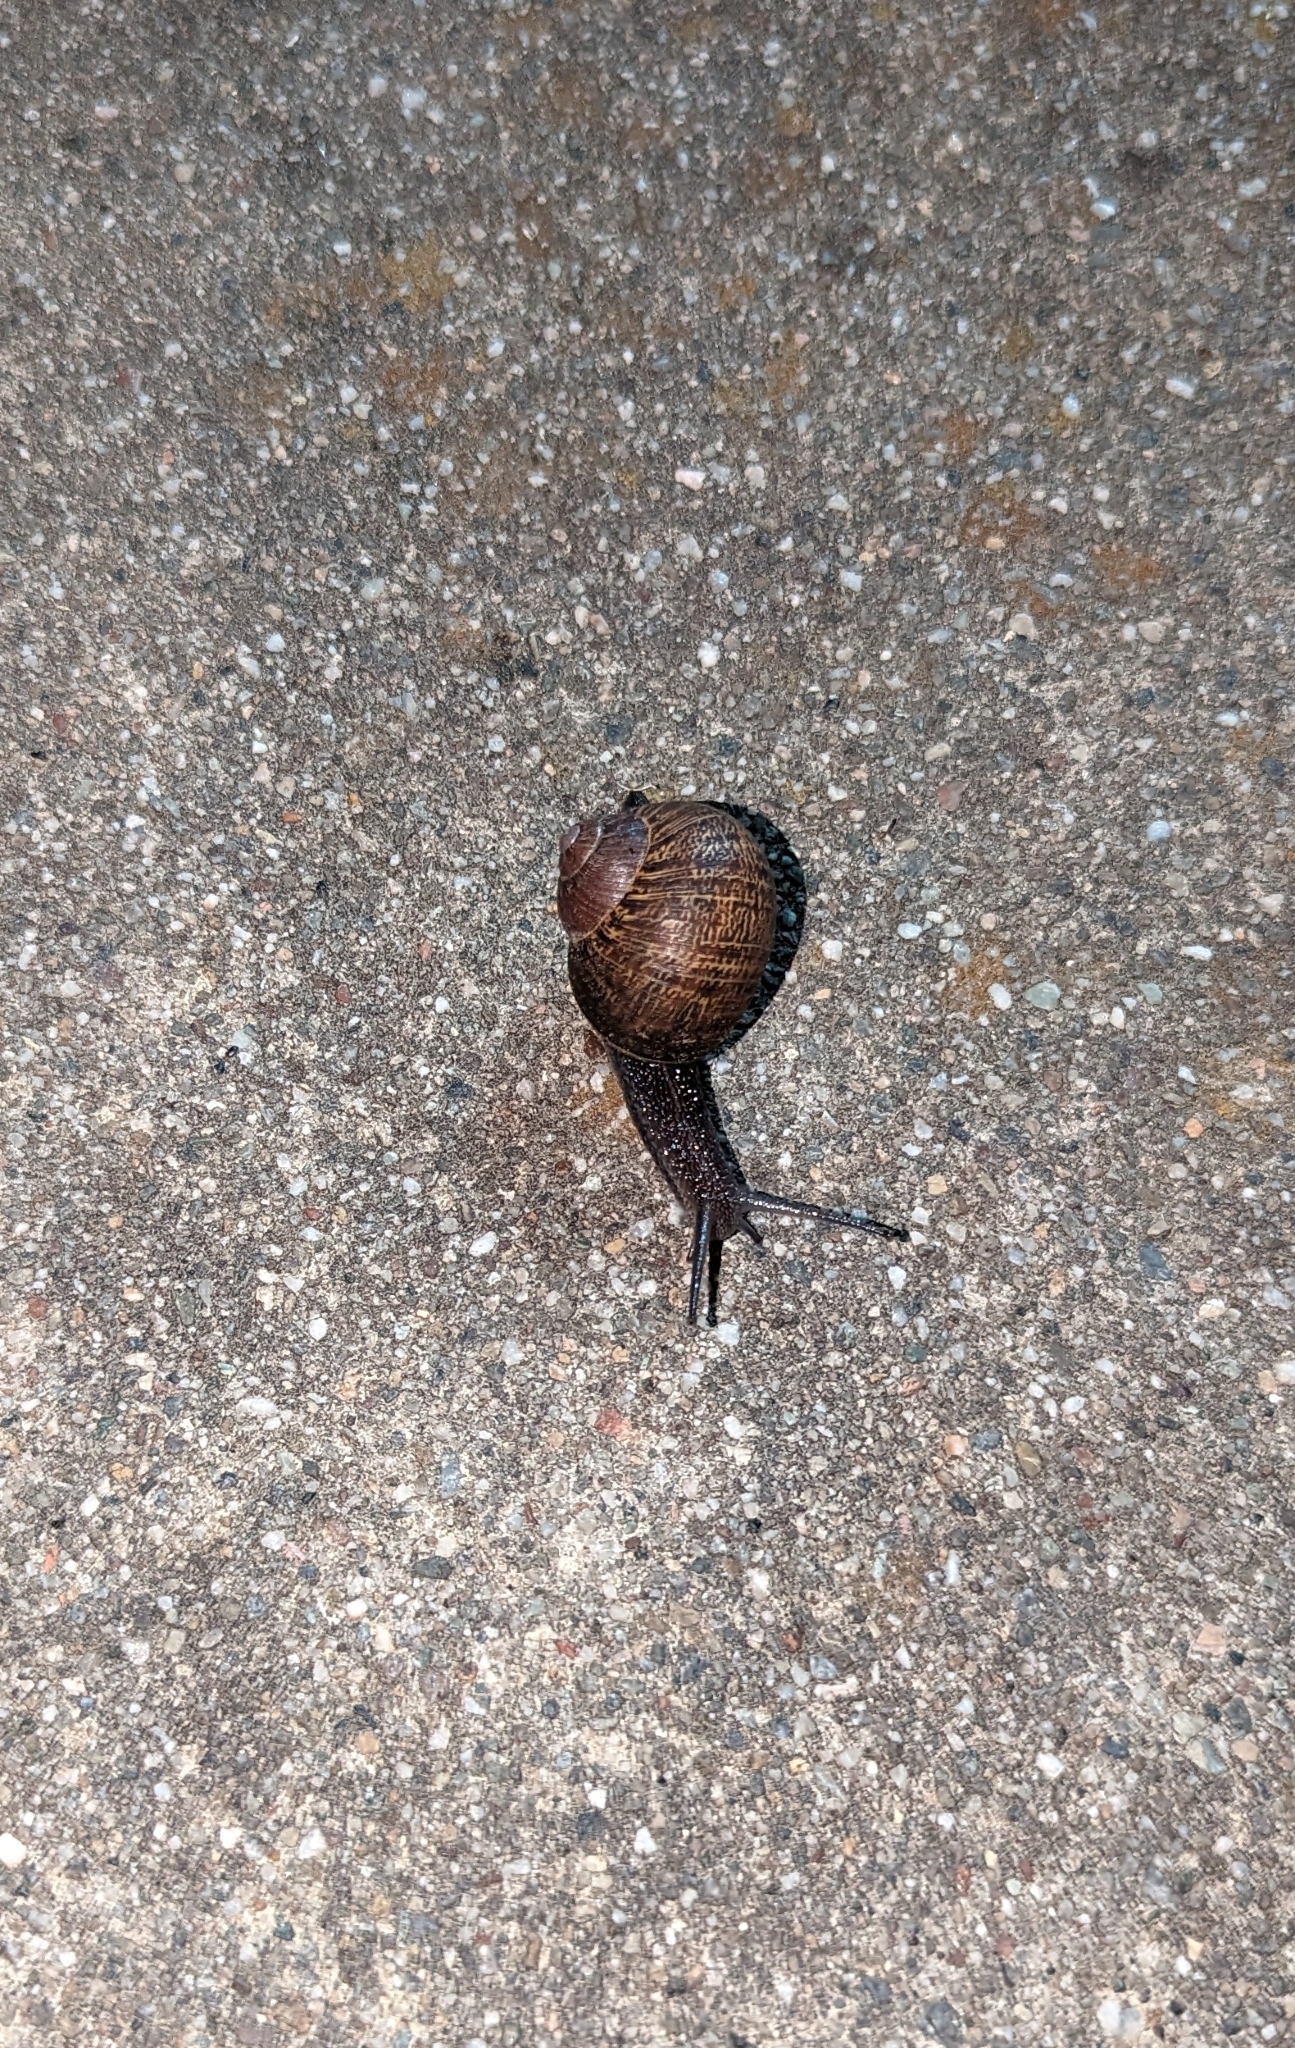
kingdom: Animalia
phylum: Mollusca
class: Gastropoda
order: Stylommatophora
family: Helicidae
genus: Cantareus
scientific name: Cantareus apertus
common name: Green gardensnail
